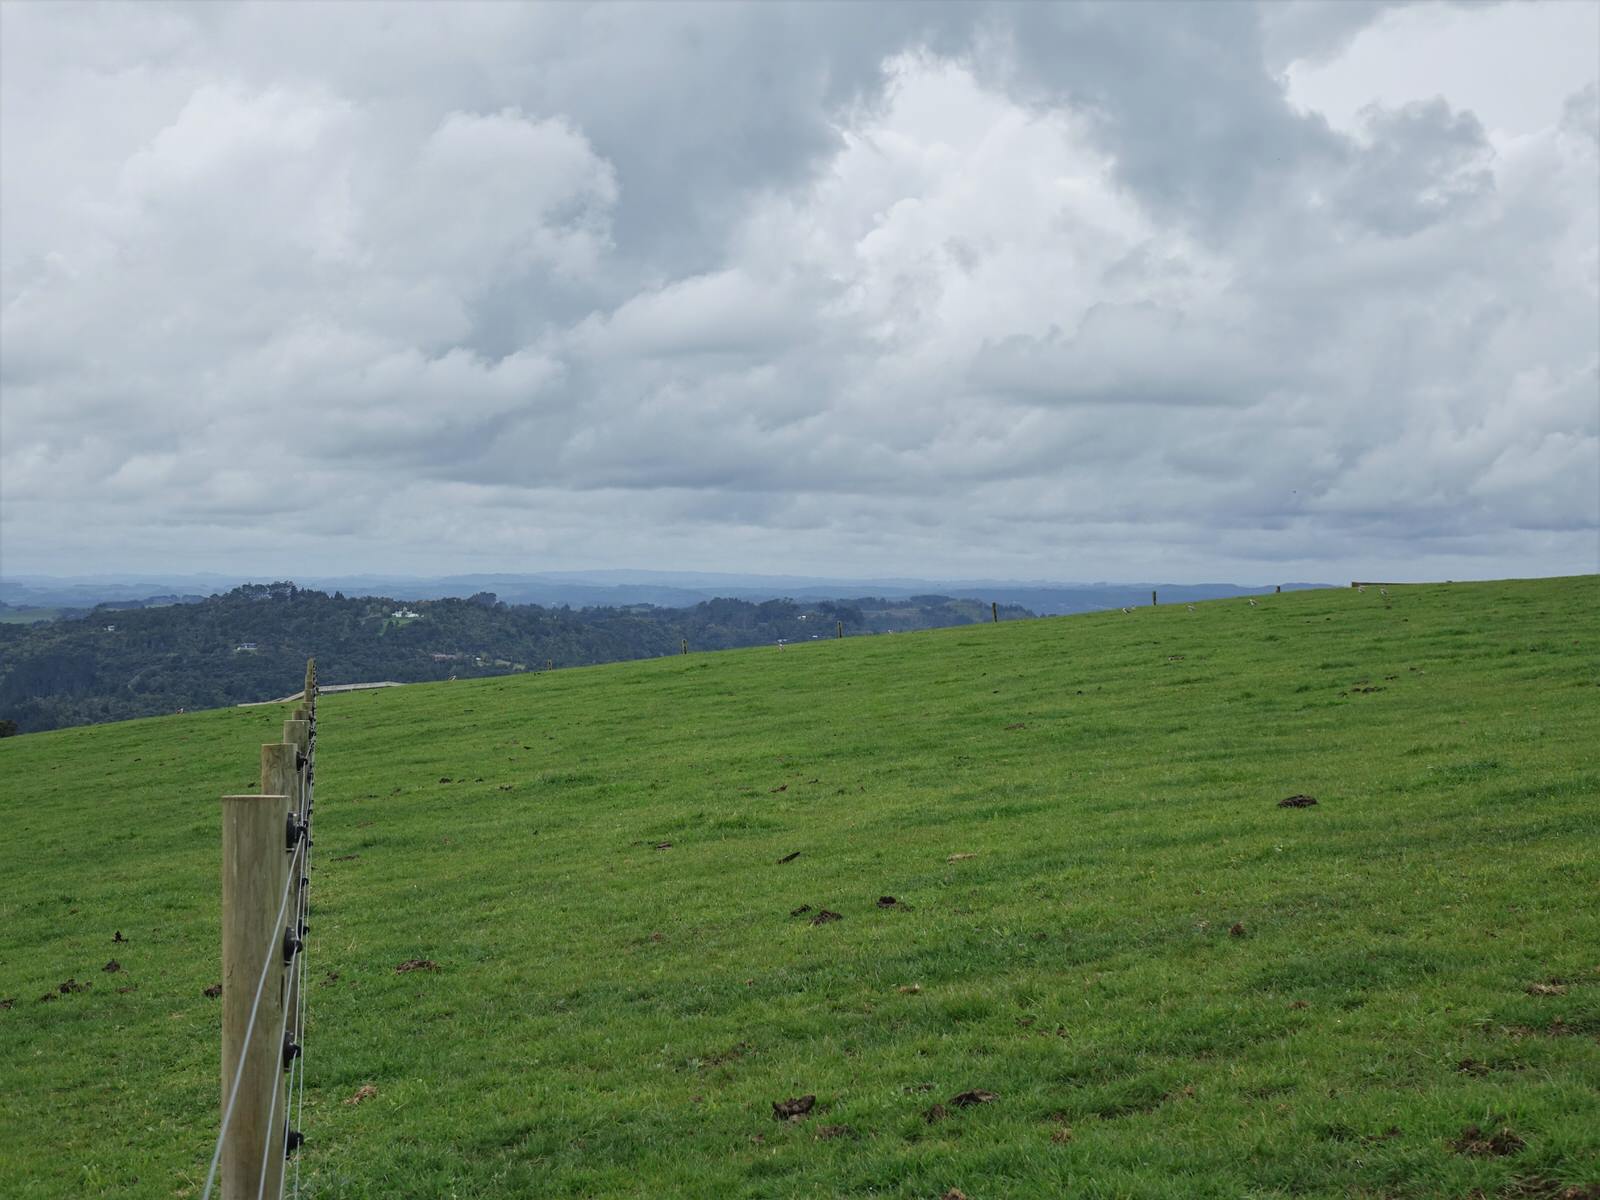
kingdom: Animalia
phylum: Chordata
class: Aves
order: Charadriiformes
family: Charadriidae
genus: Vanellus
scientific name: Vanellus miles
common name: Masked lapwing
